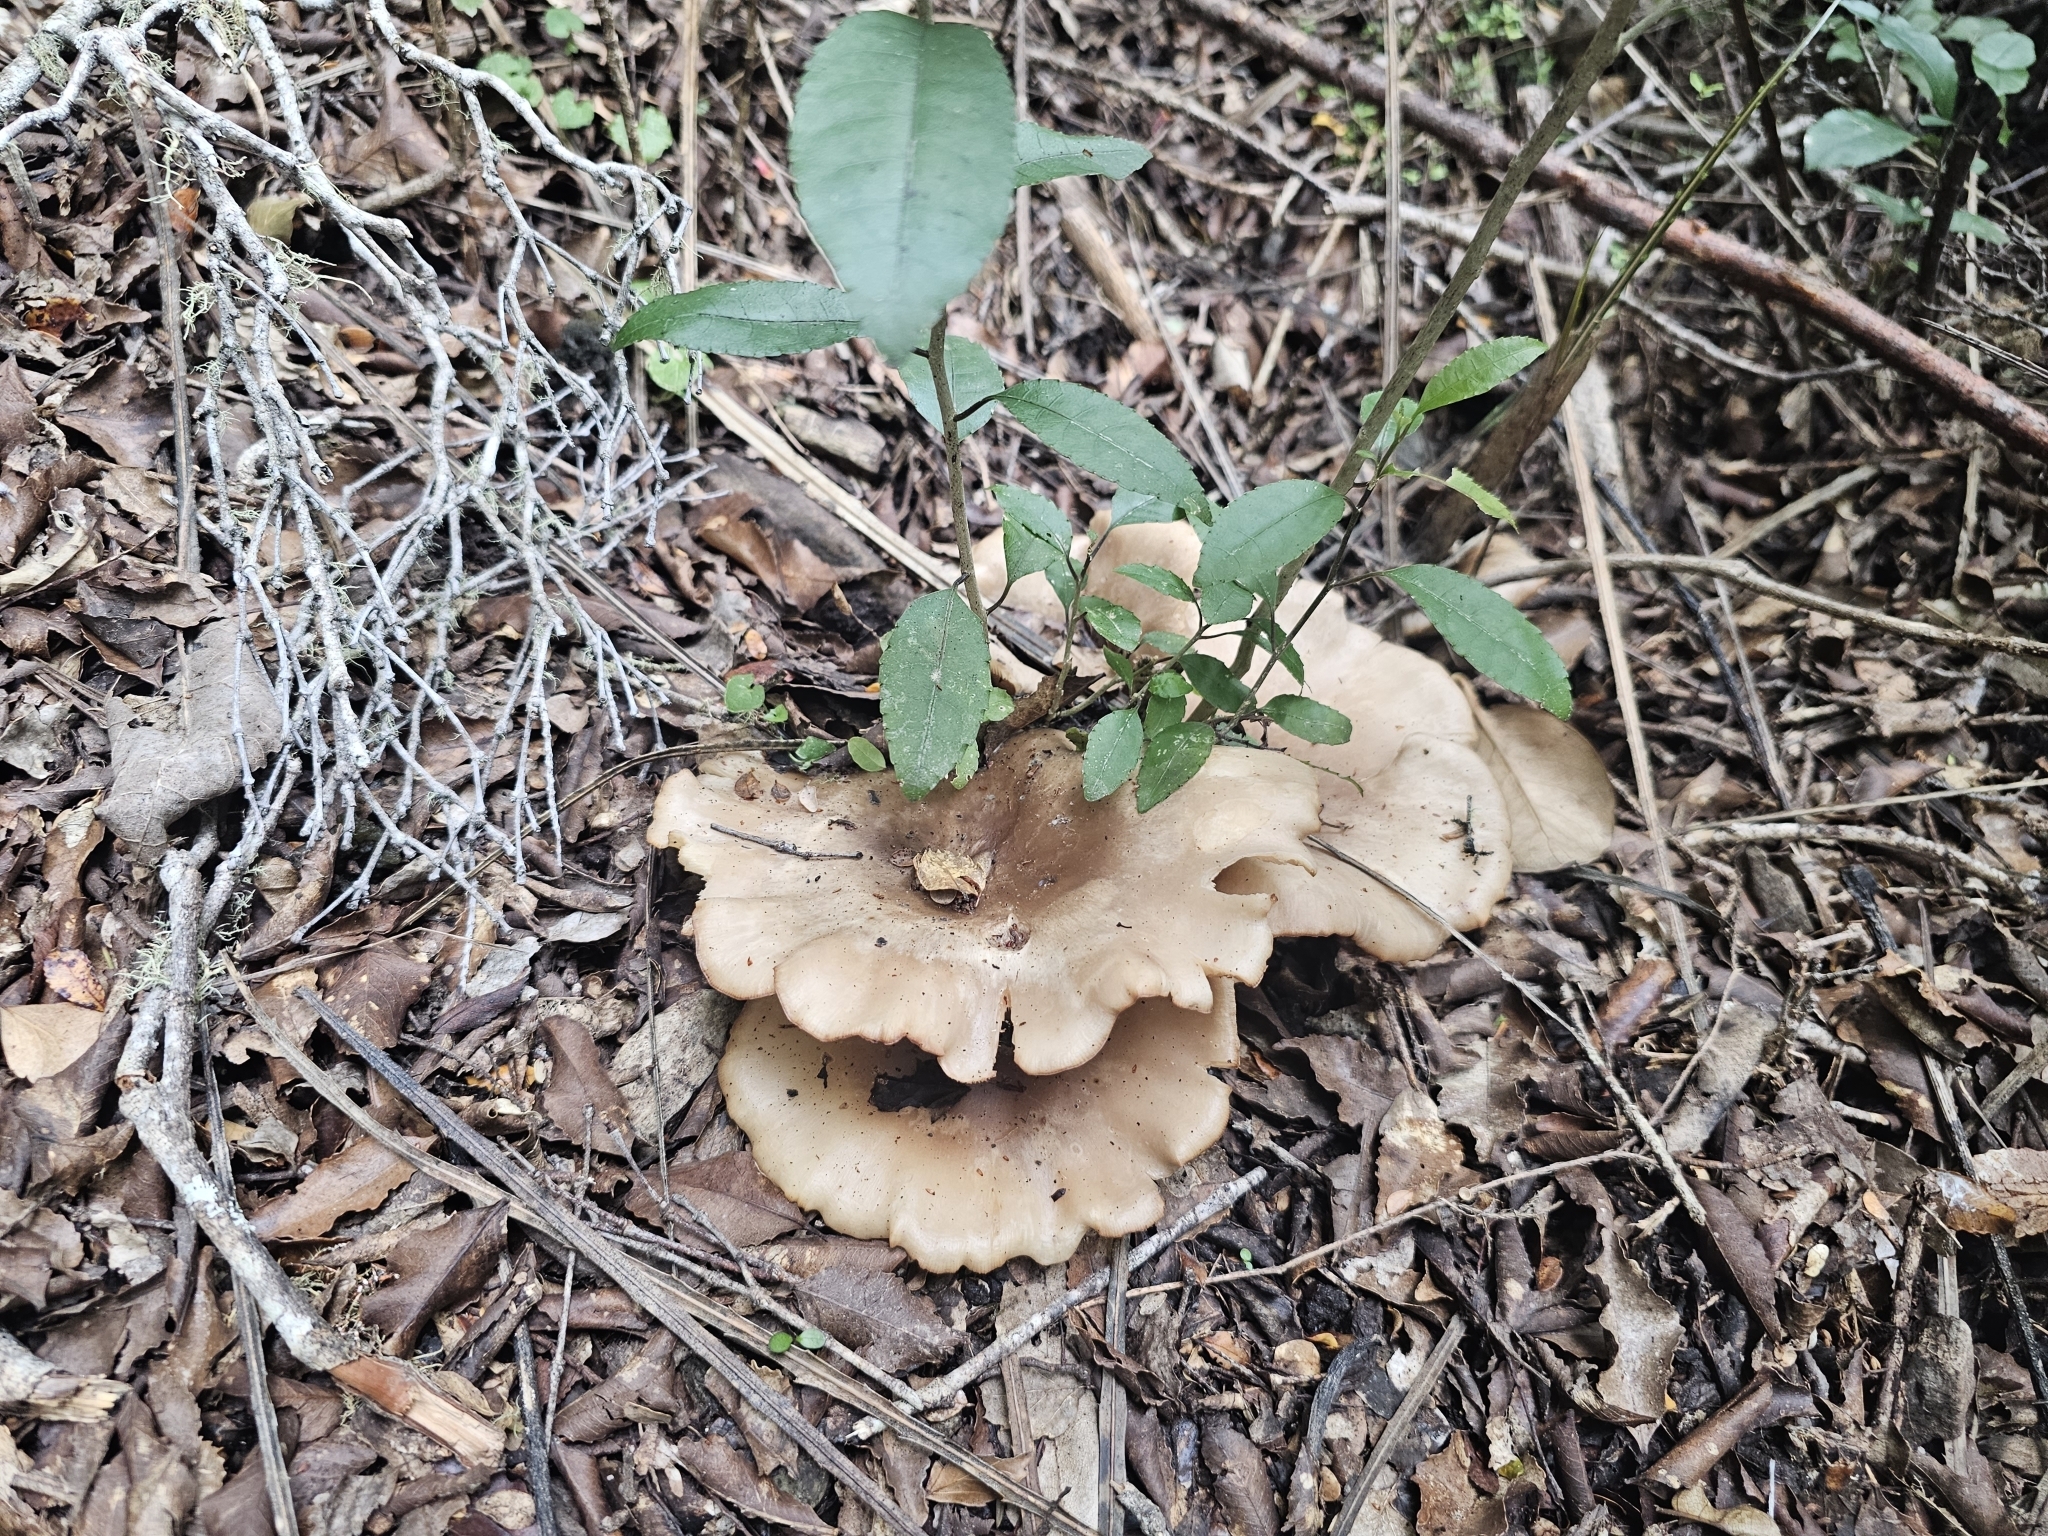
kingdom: Fungi
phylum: Basidiomycota
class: Agaricomycetes
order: Agaricales
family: Tricholomataceae
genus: Clitocybe
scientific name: Clitocybe nebularis
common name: Clouded agaric
